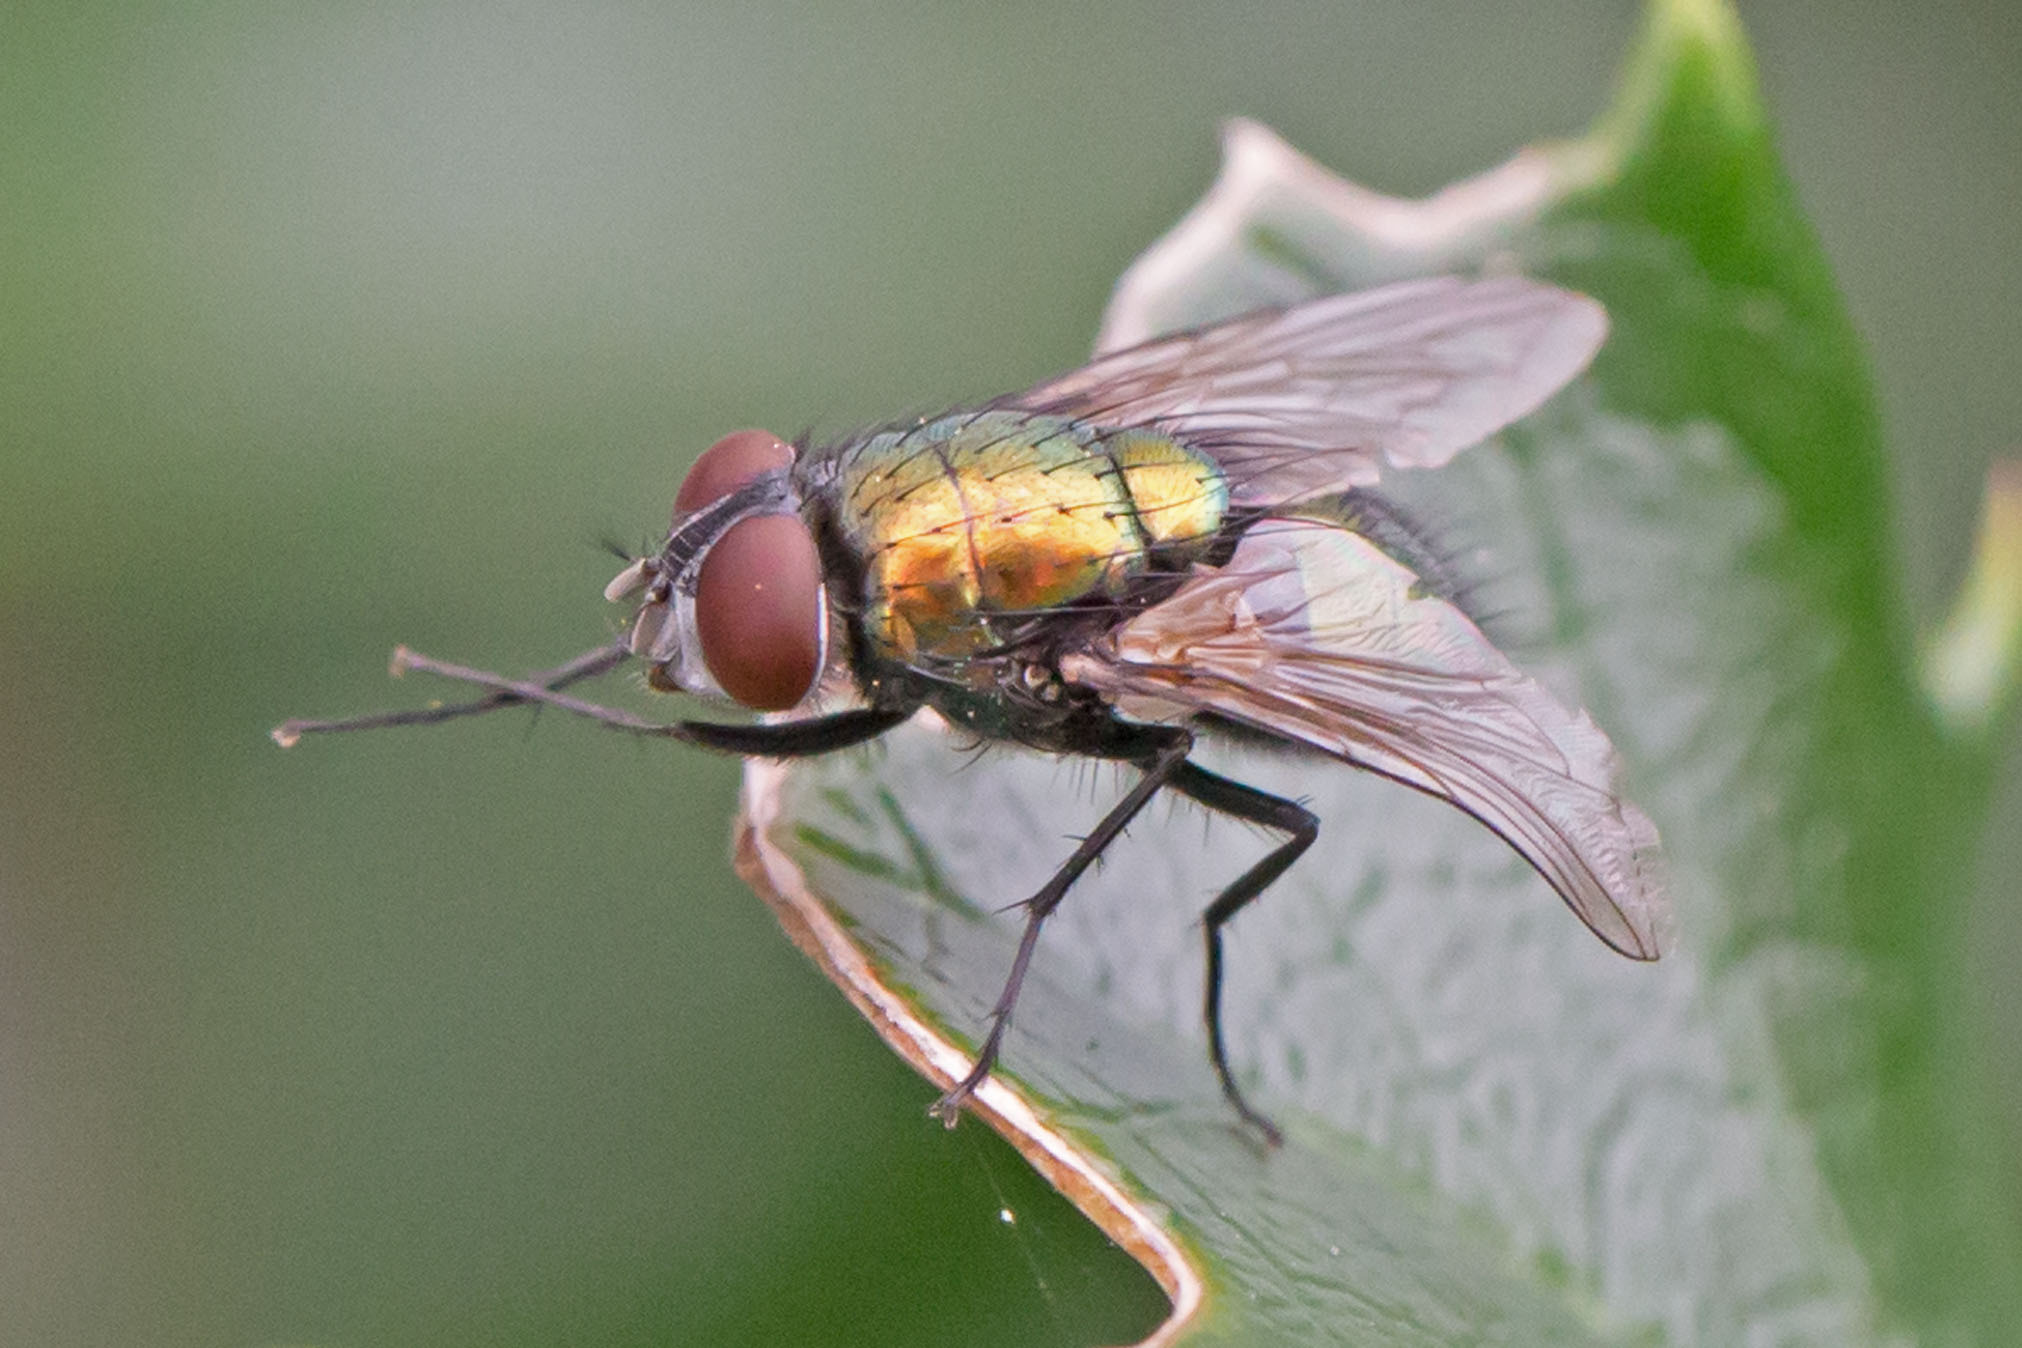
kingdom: Animalia
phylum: Arthropoda
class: Insecta
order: Diptera
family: Calliphoridae
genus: Lucilia
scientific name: Lucilia sericata
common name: Blow fly
